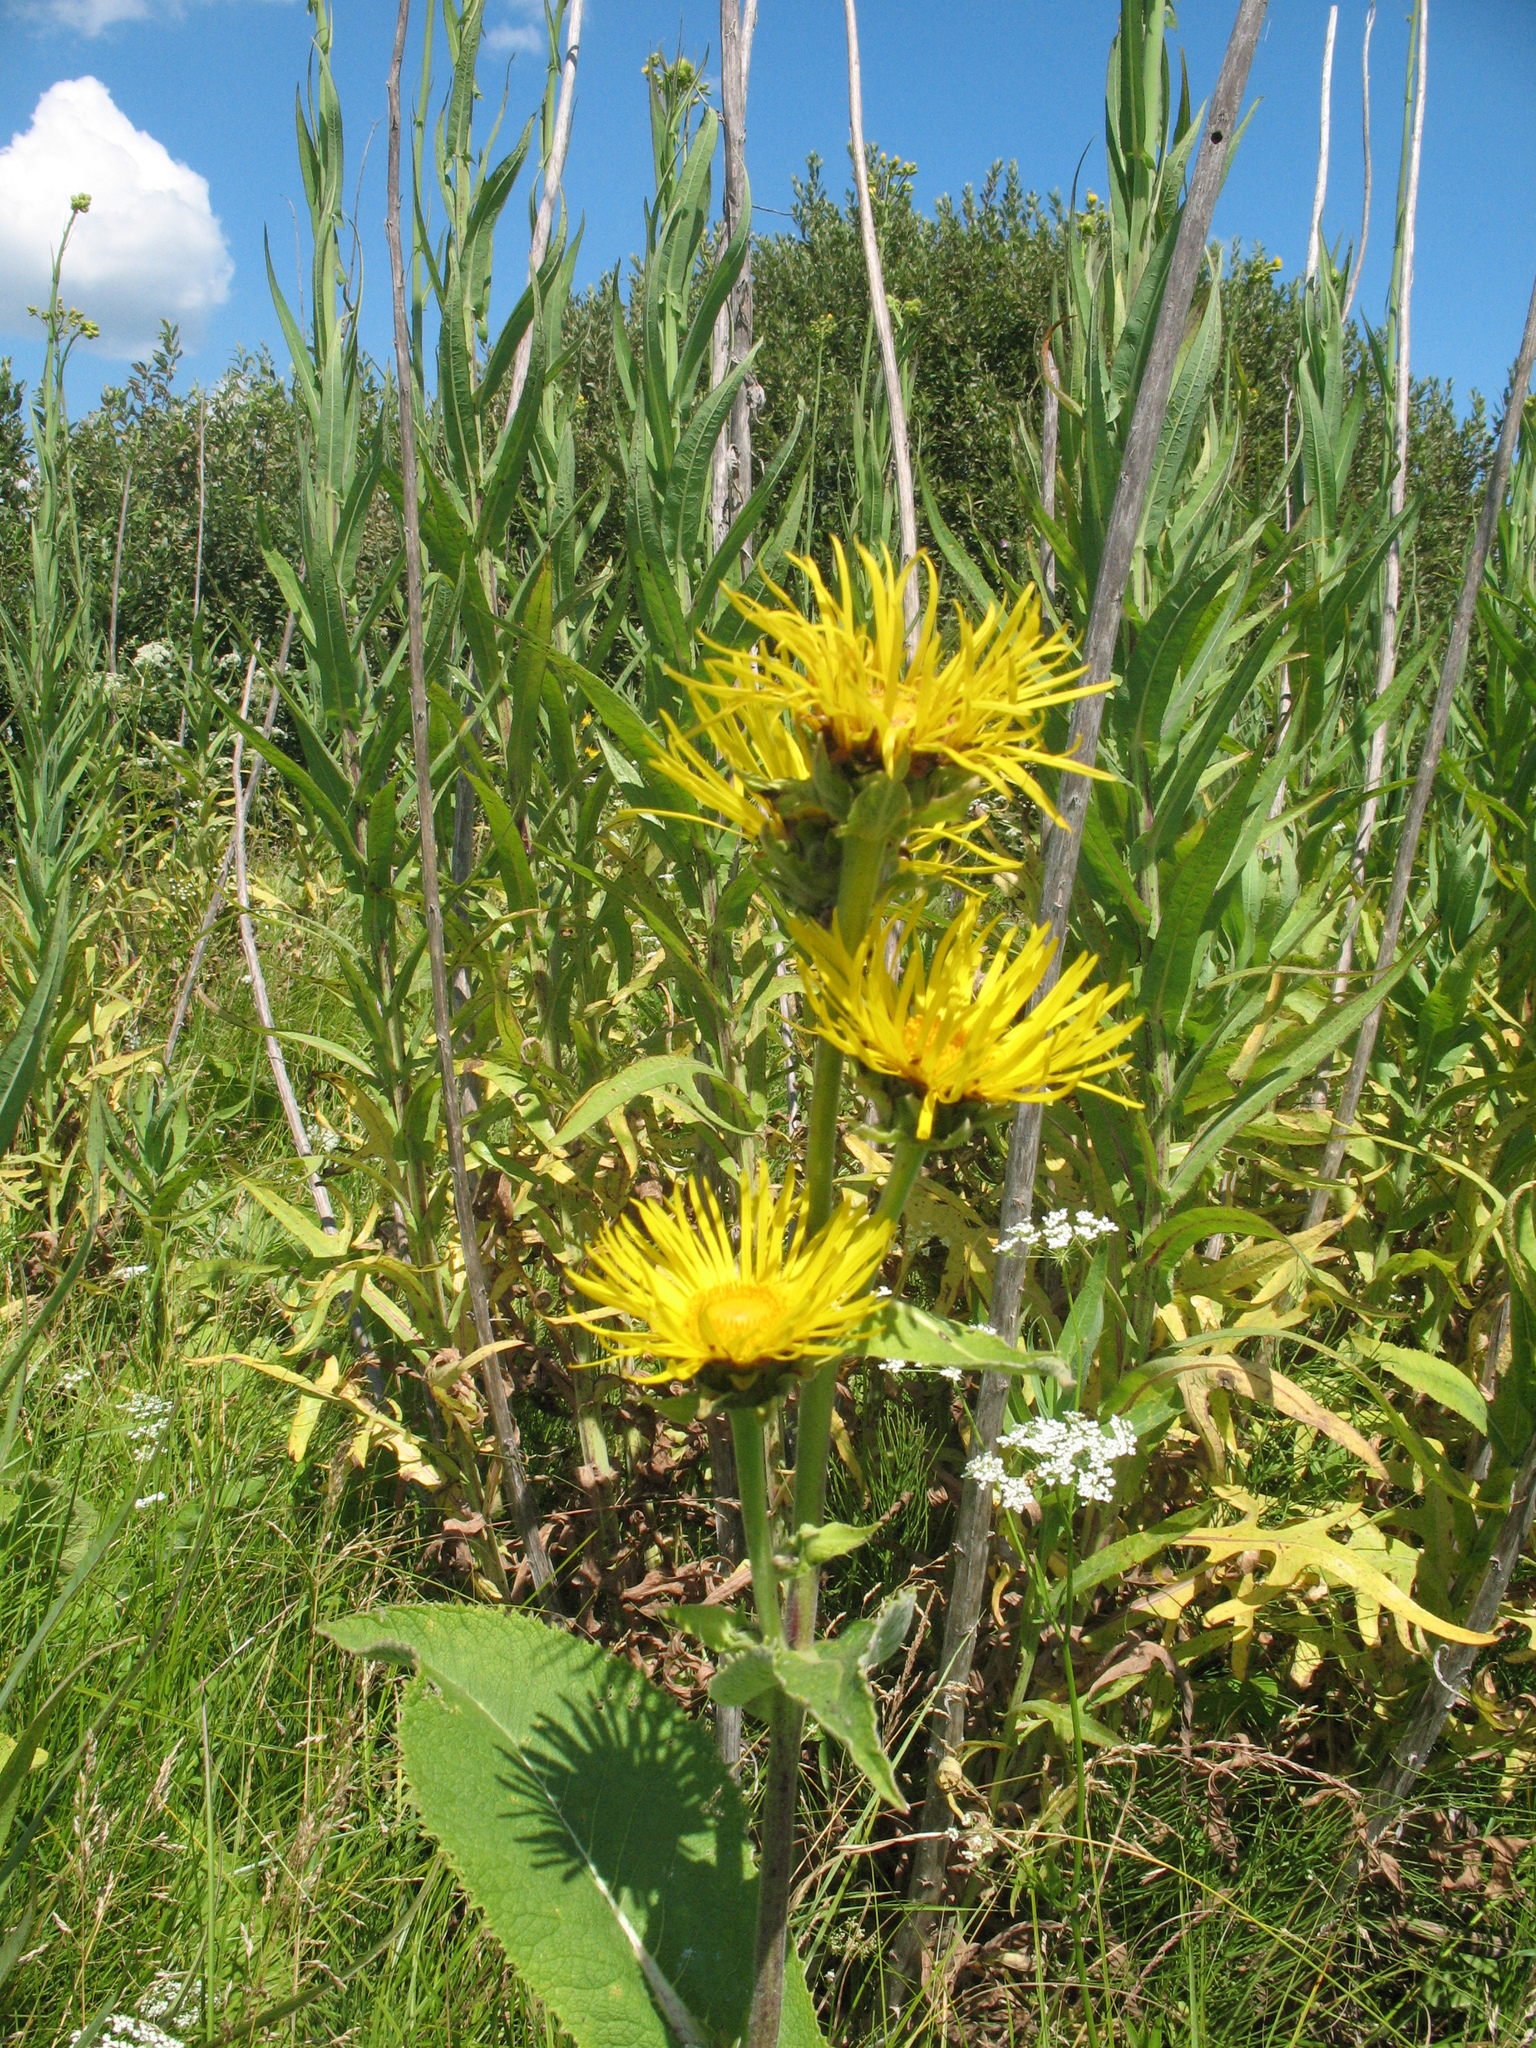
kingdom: Plantae
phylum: Tracheophyta
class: Magnoliopsida
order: Asterales
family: Asteraceae
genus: Inula
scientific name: Inula helenium
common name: Elecampane
